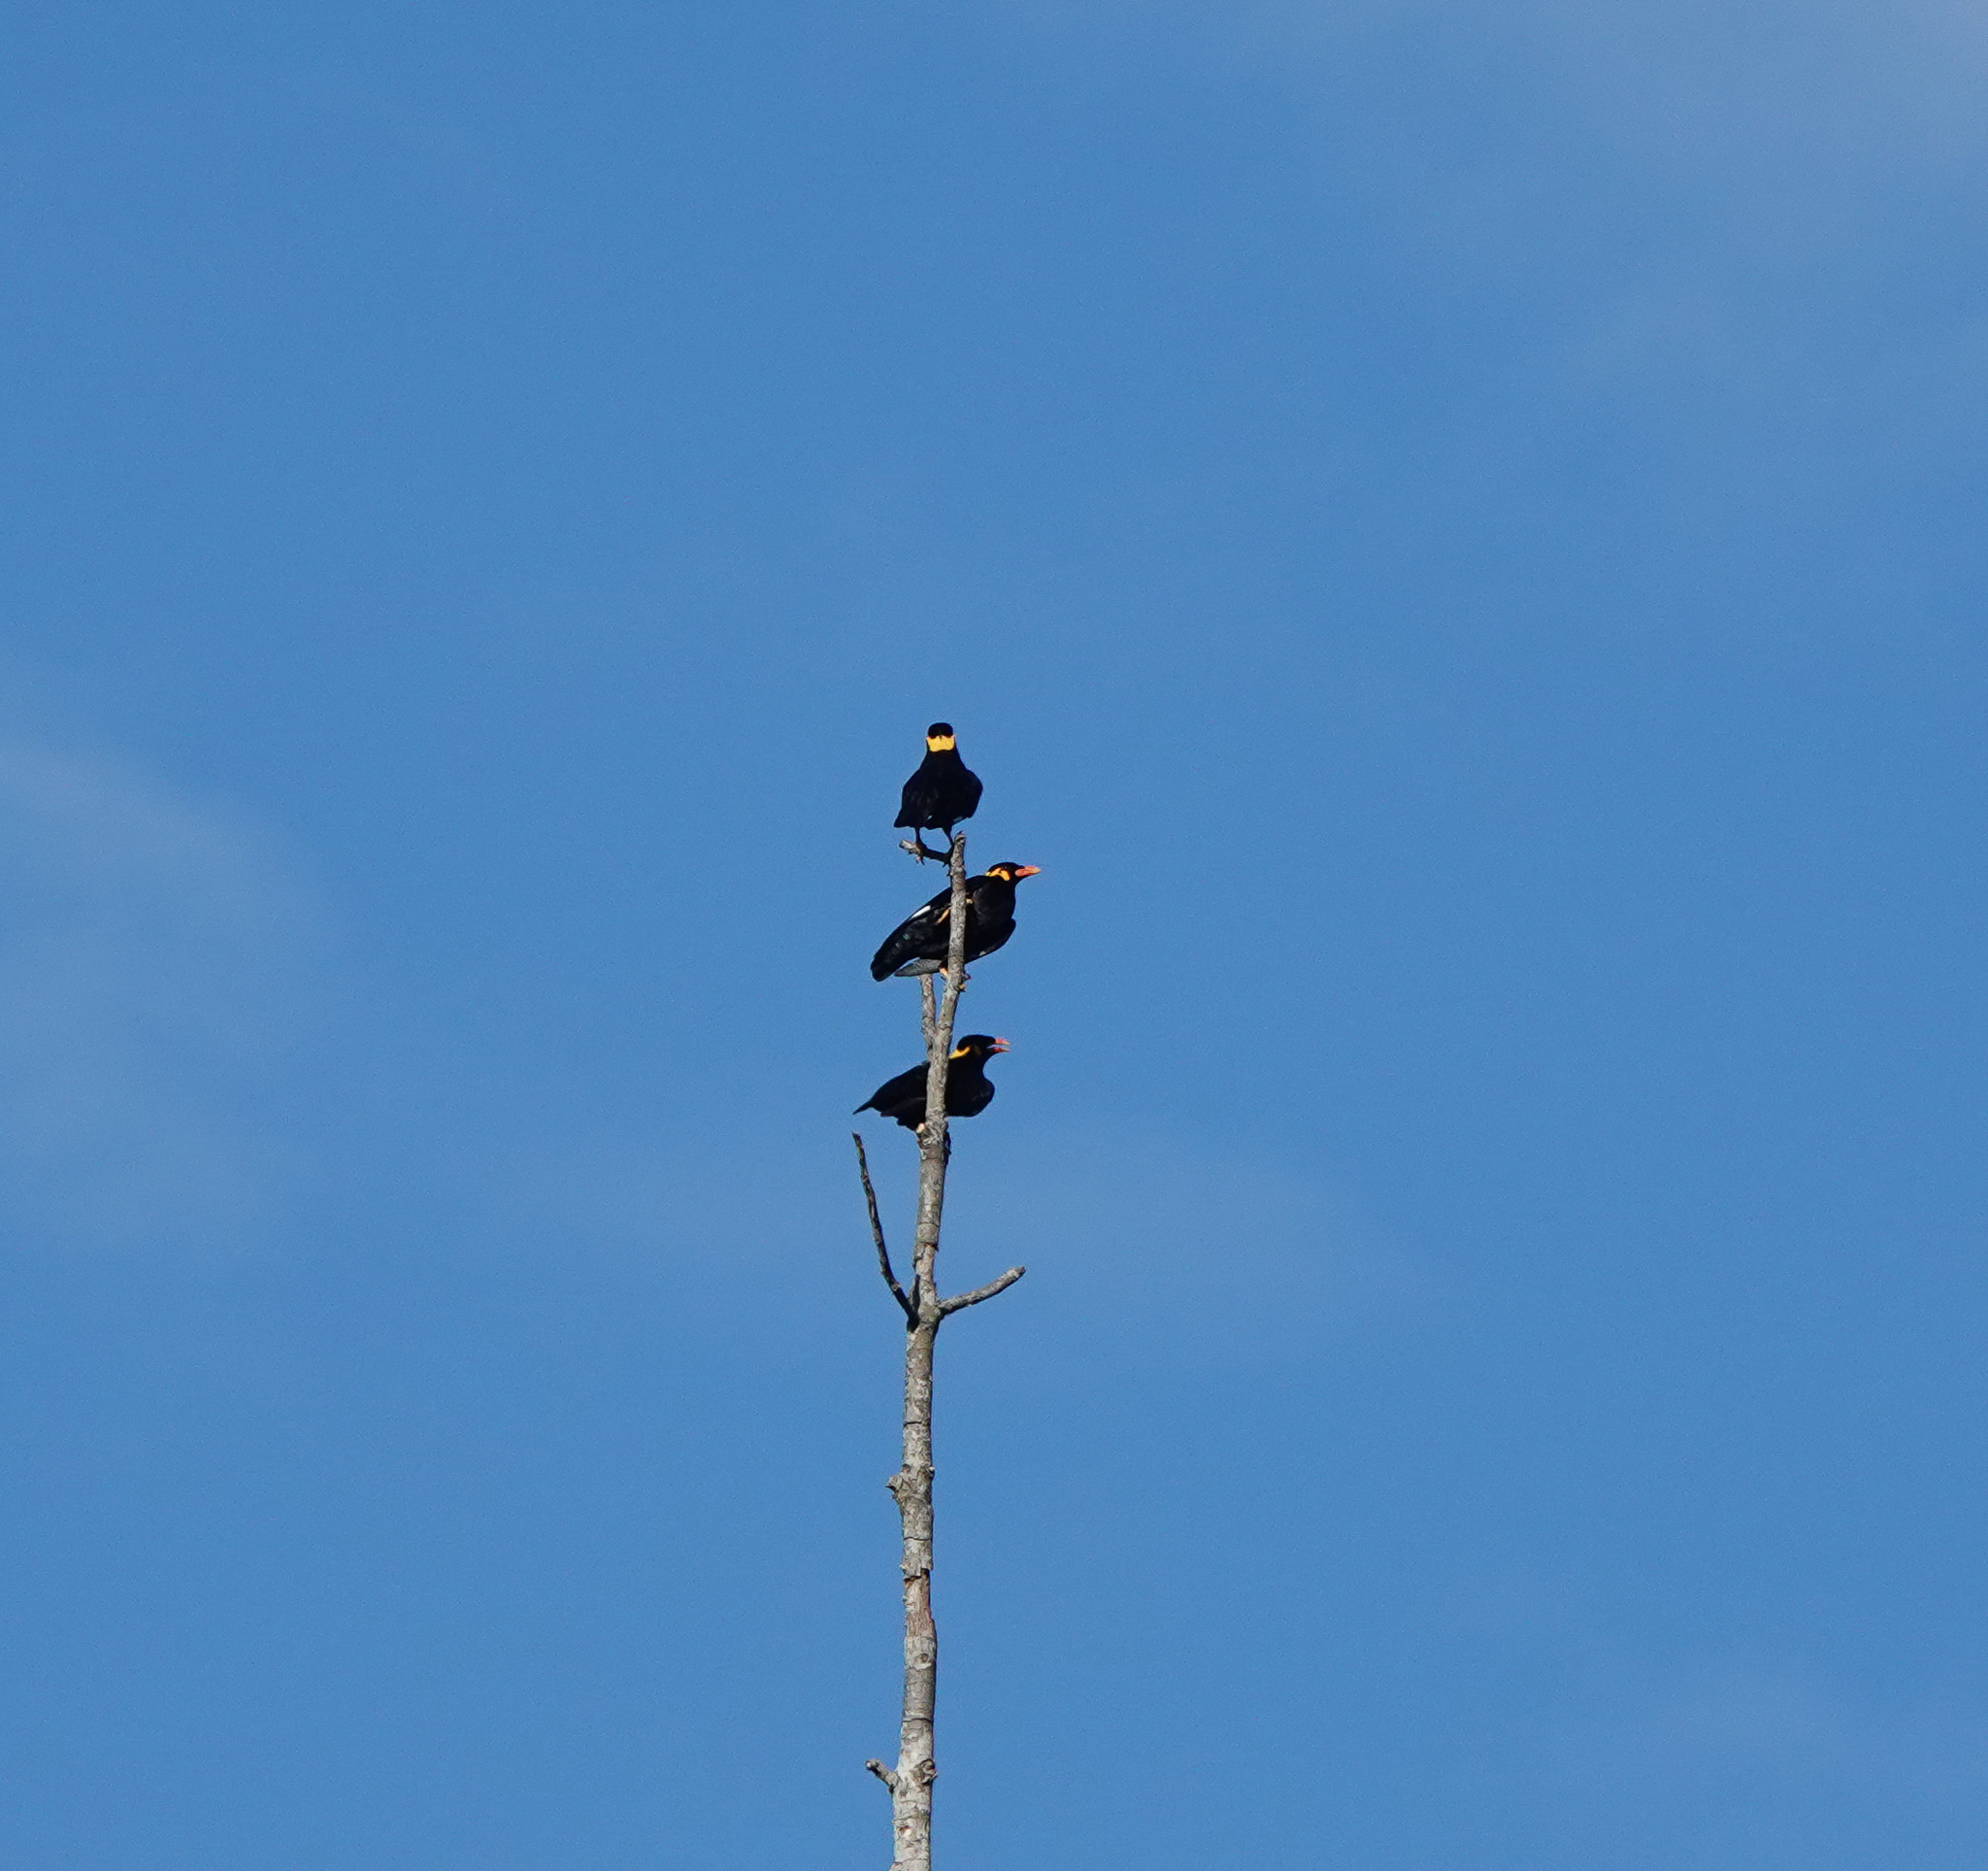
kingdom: Animalia
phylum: Chordata
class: Aves
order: Passeriformes
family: Sturnidae
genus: Gracula
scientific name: Gracula religiosa
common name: Common hill myna
